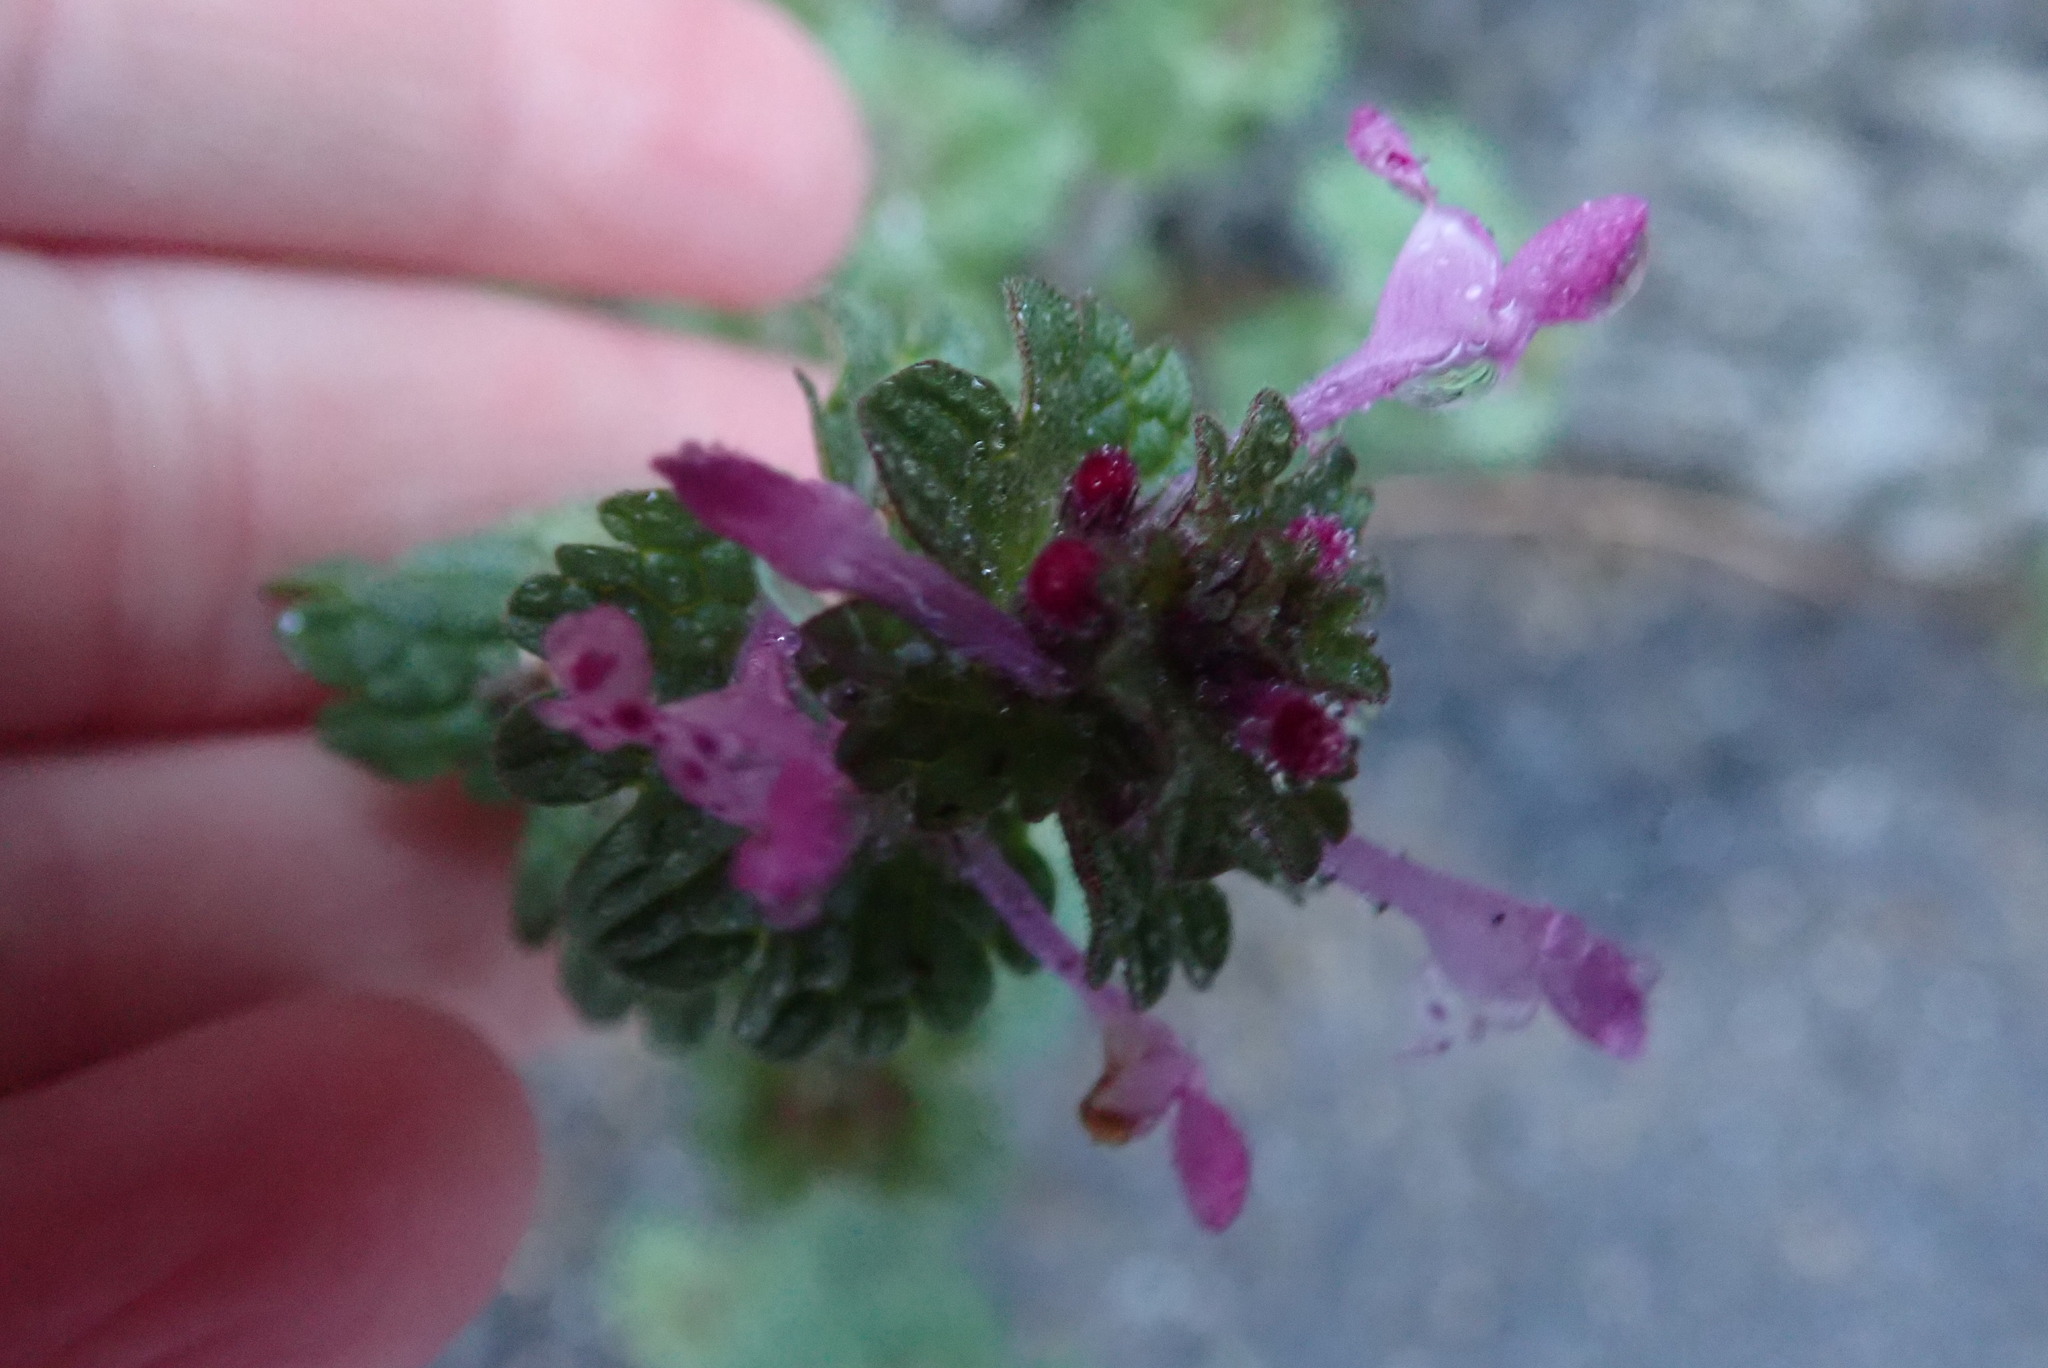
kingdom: Plantae
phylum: Tracheophyta
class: Magnoliopsida
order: Lamiales
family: Lamiaceae
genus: Lamium
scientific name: Lamium amplexicaule
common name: Henbit dead-nettle
